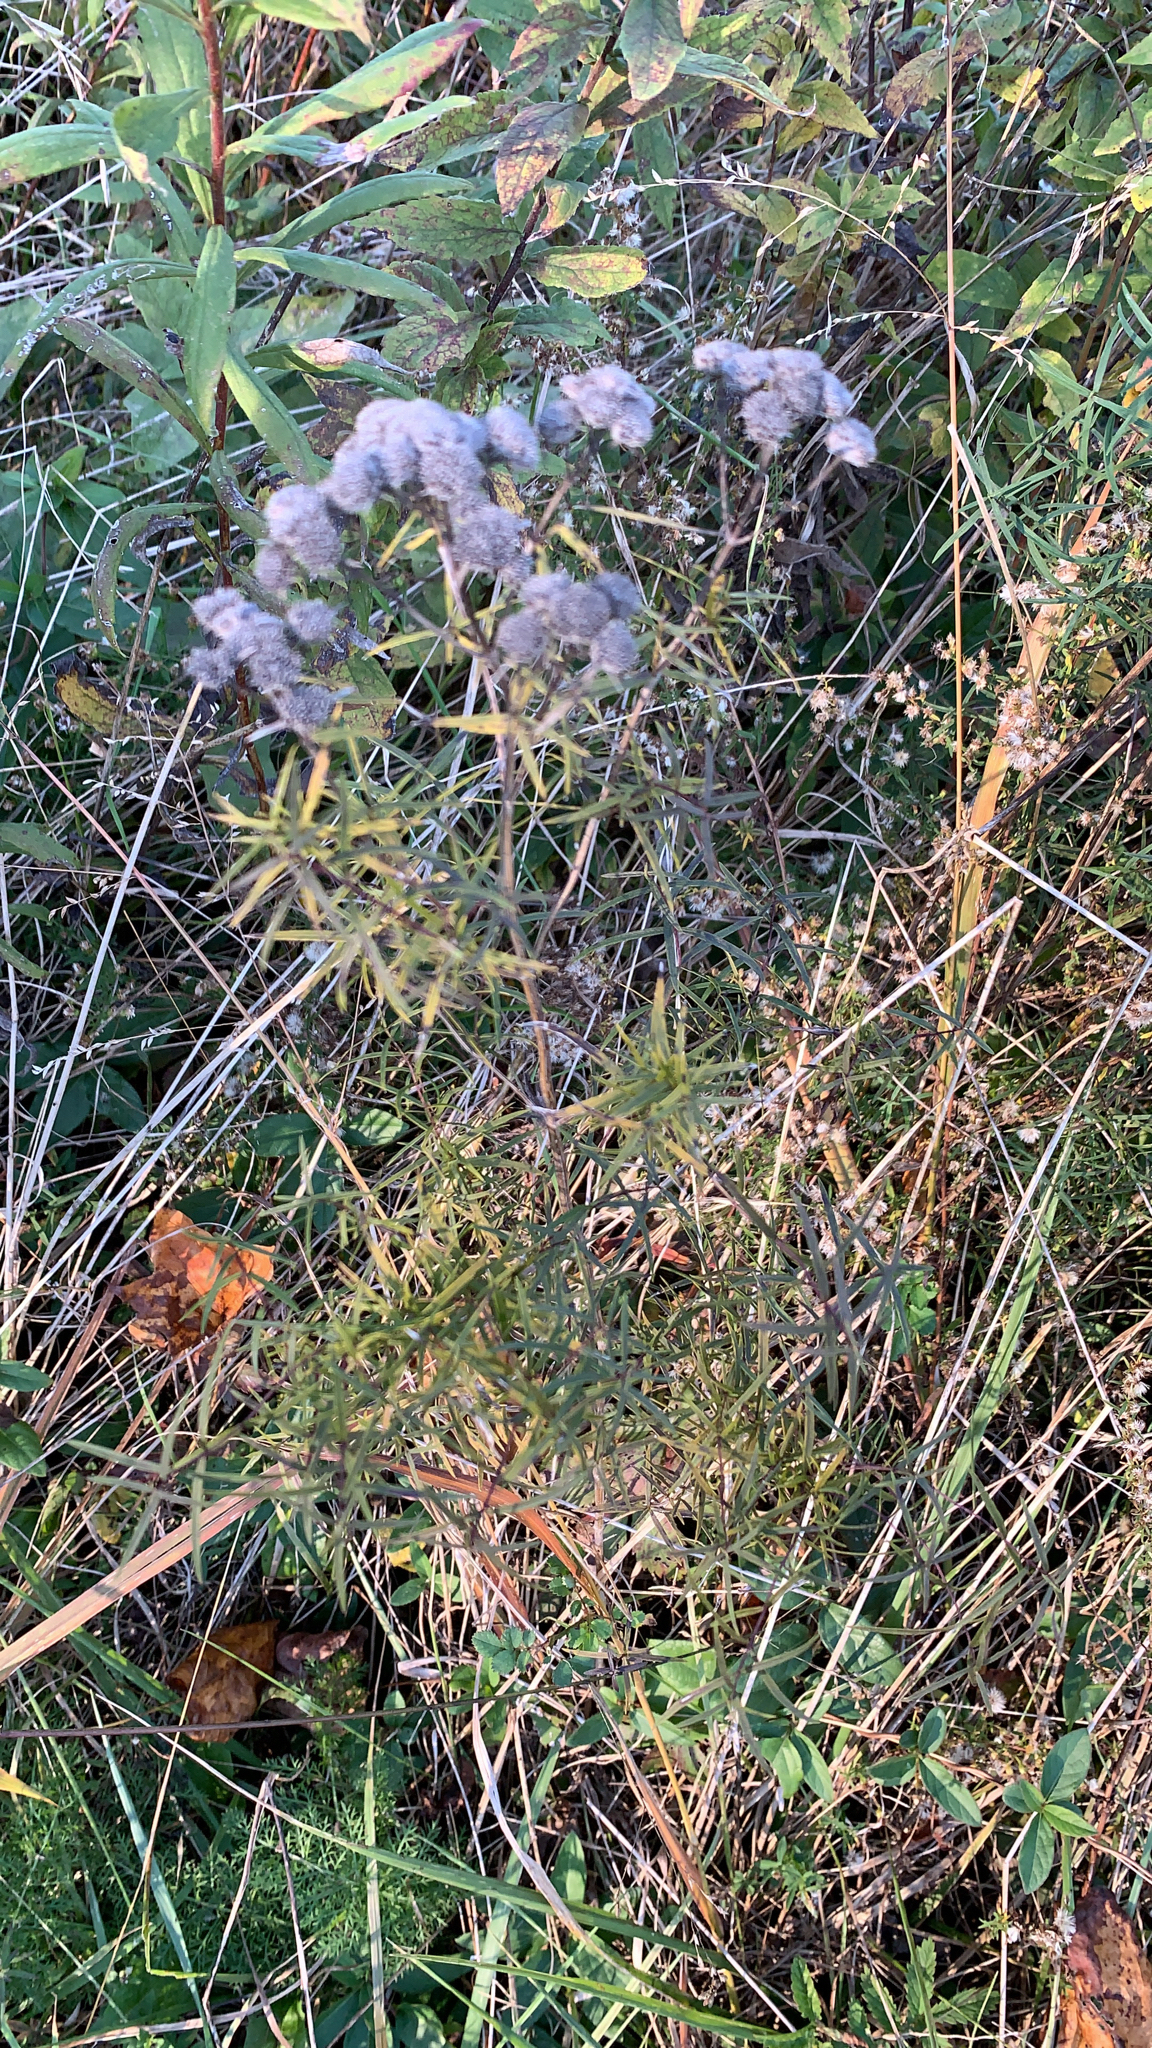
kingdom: Plantae
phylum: Tracheophyta
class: Magnoliopsida
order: Lamiales
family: Lamiaceae
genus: Pycnanthemum
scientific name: Pycnanthemum tenuifolium
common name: Narrow-leaf mountain-mint
